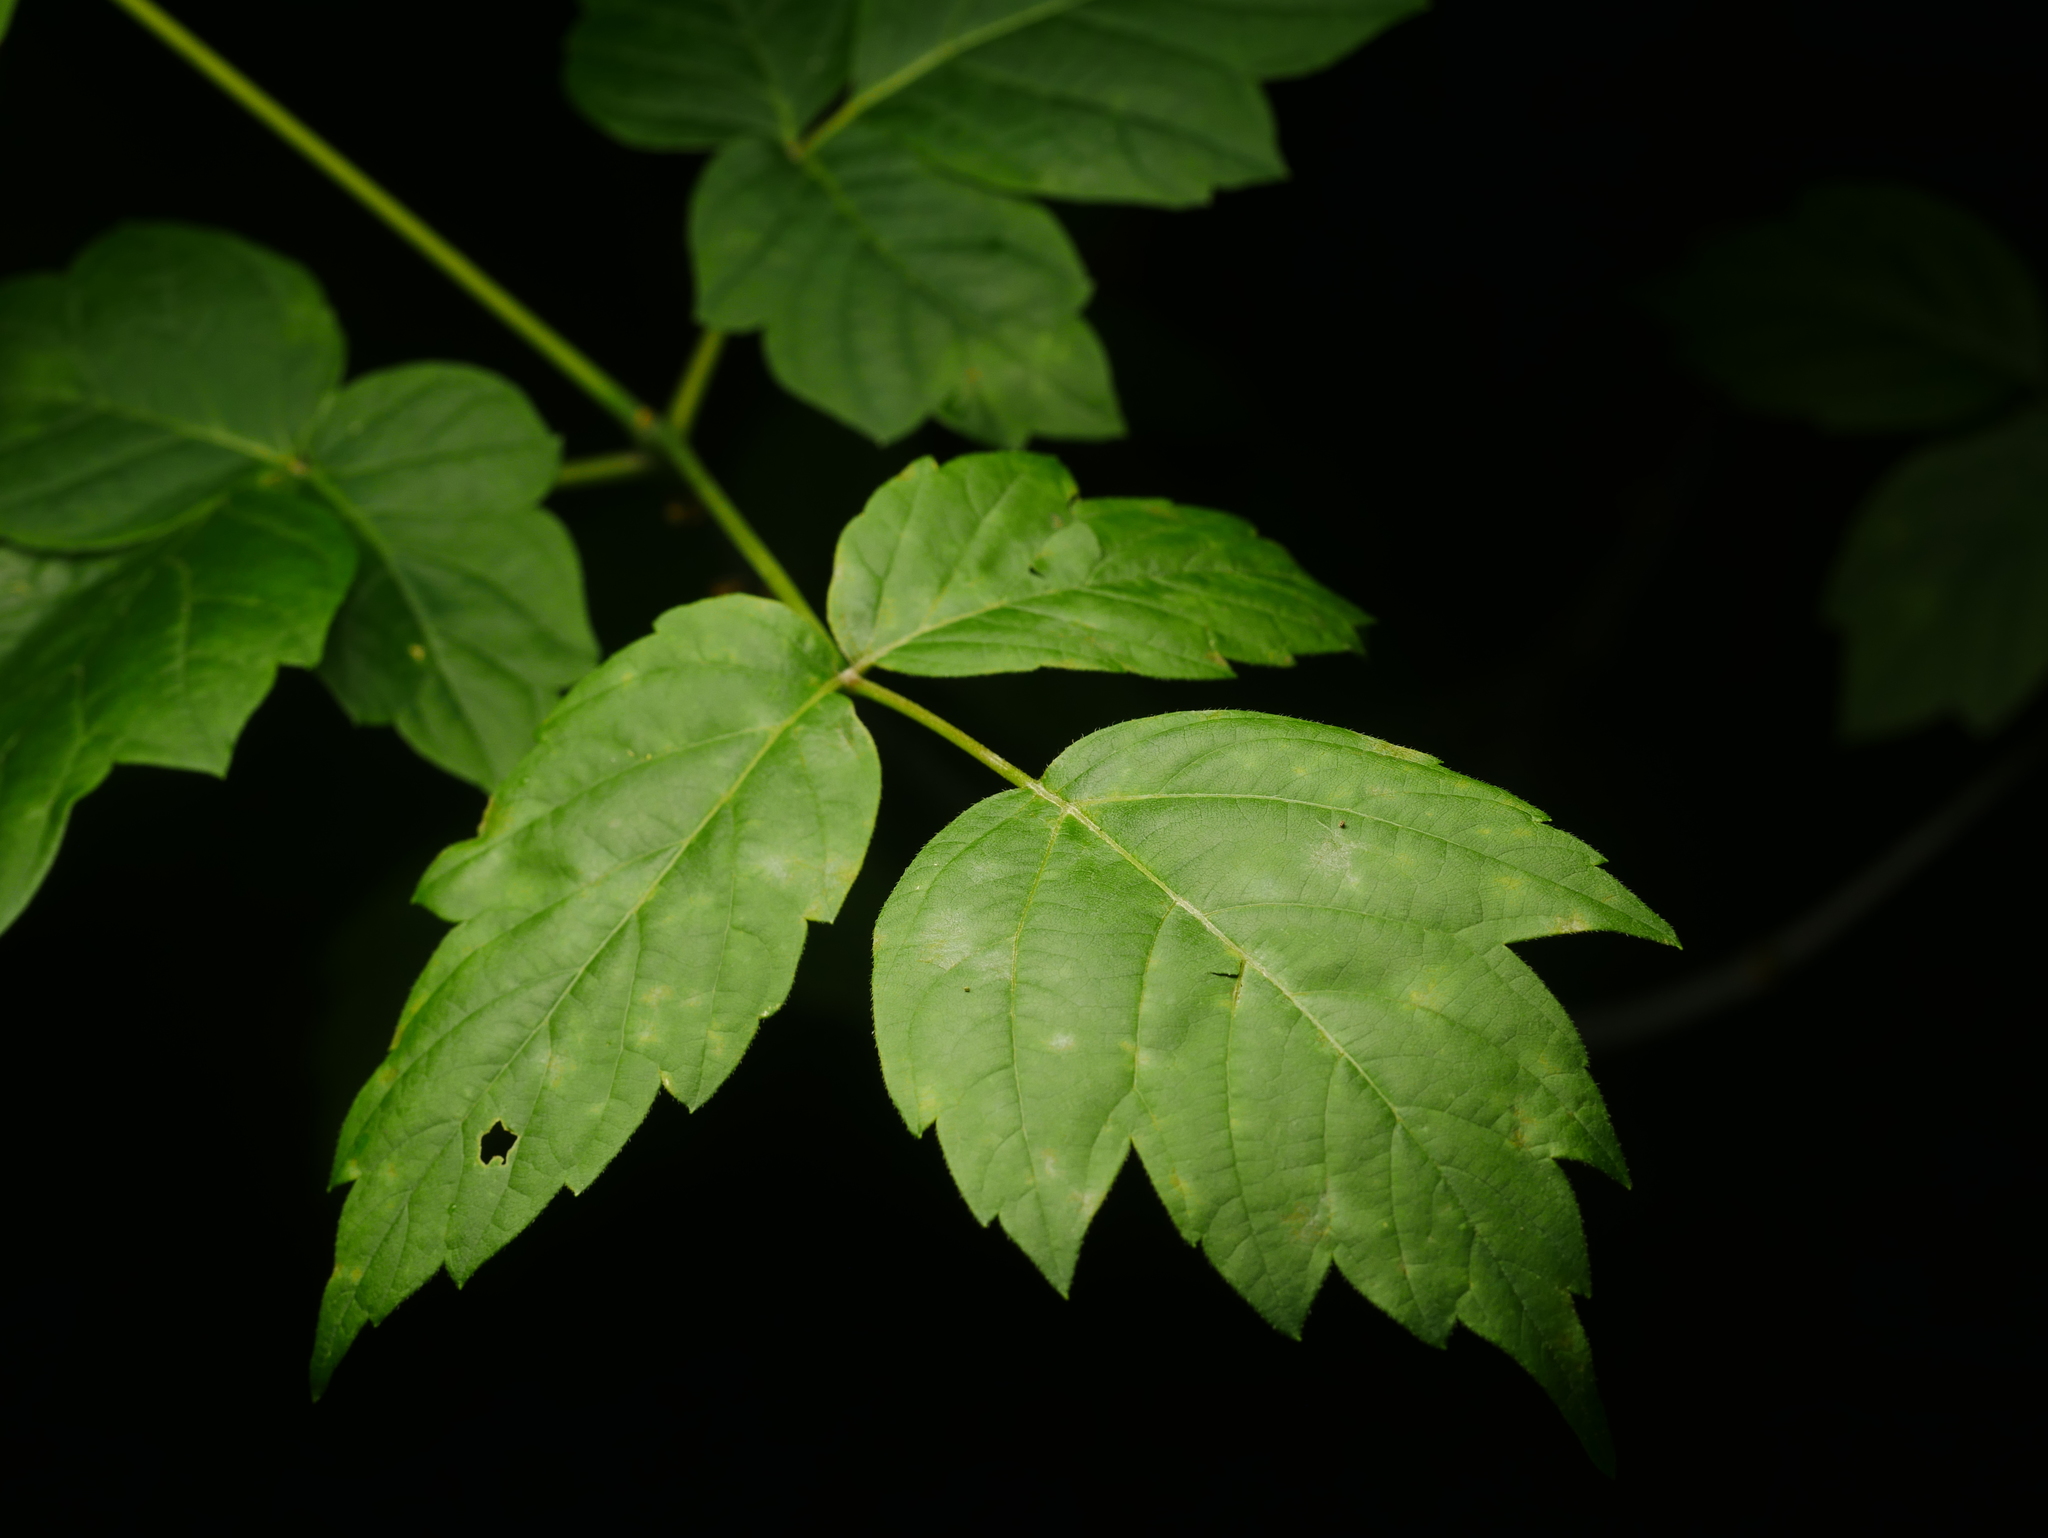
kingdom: Plantae
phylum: Tracheophyta
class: Magnoliopsida
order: Sapindales
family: Sapindaceae
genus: Acer
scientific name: Acer negundo
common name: Ashleaf maple
